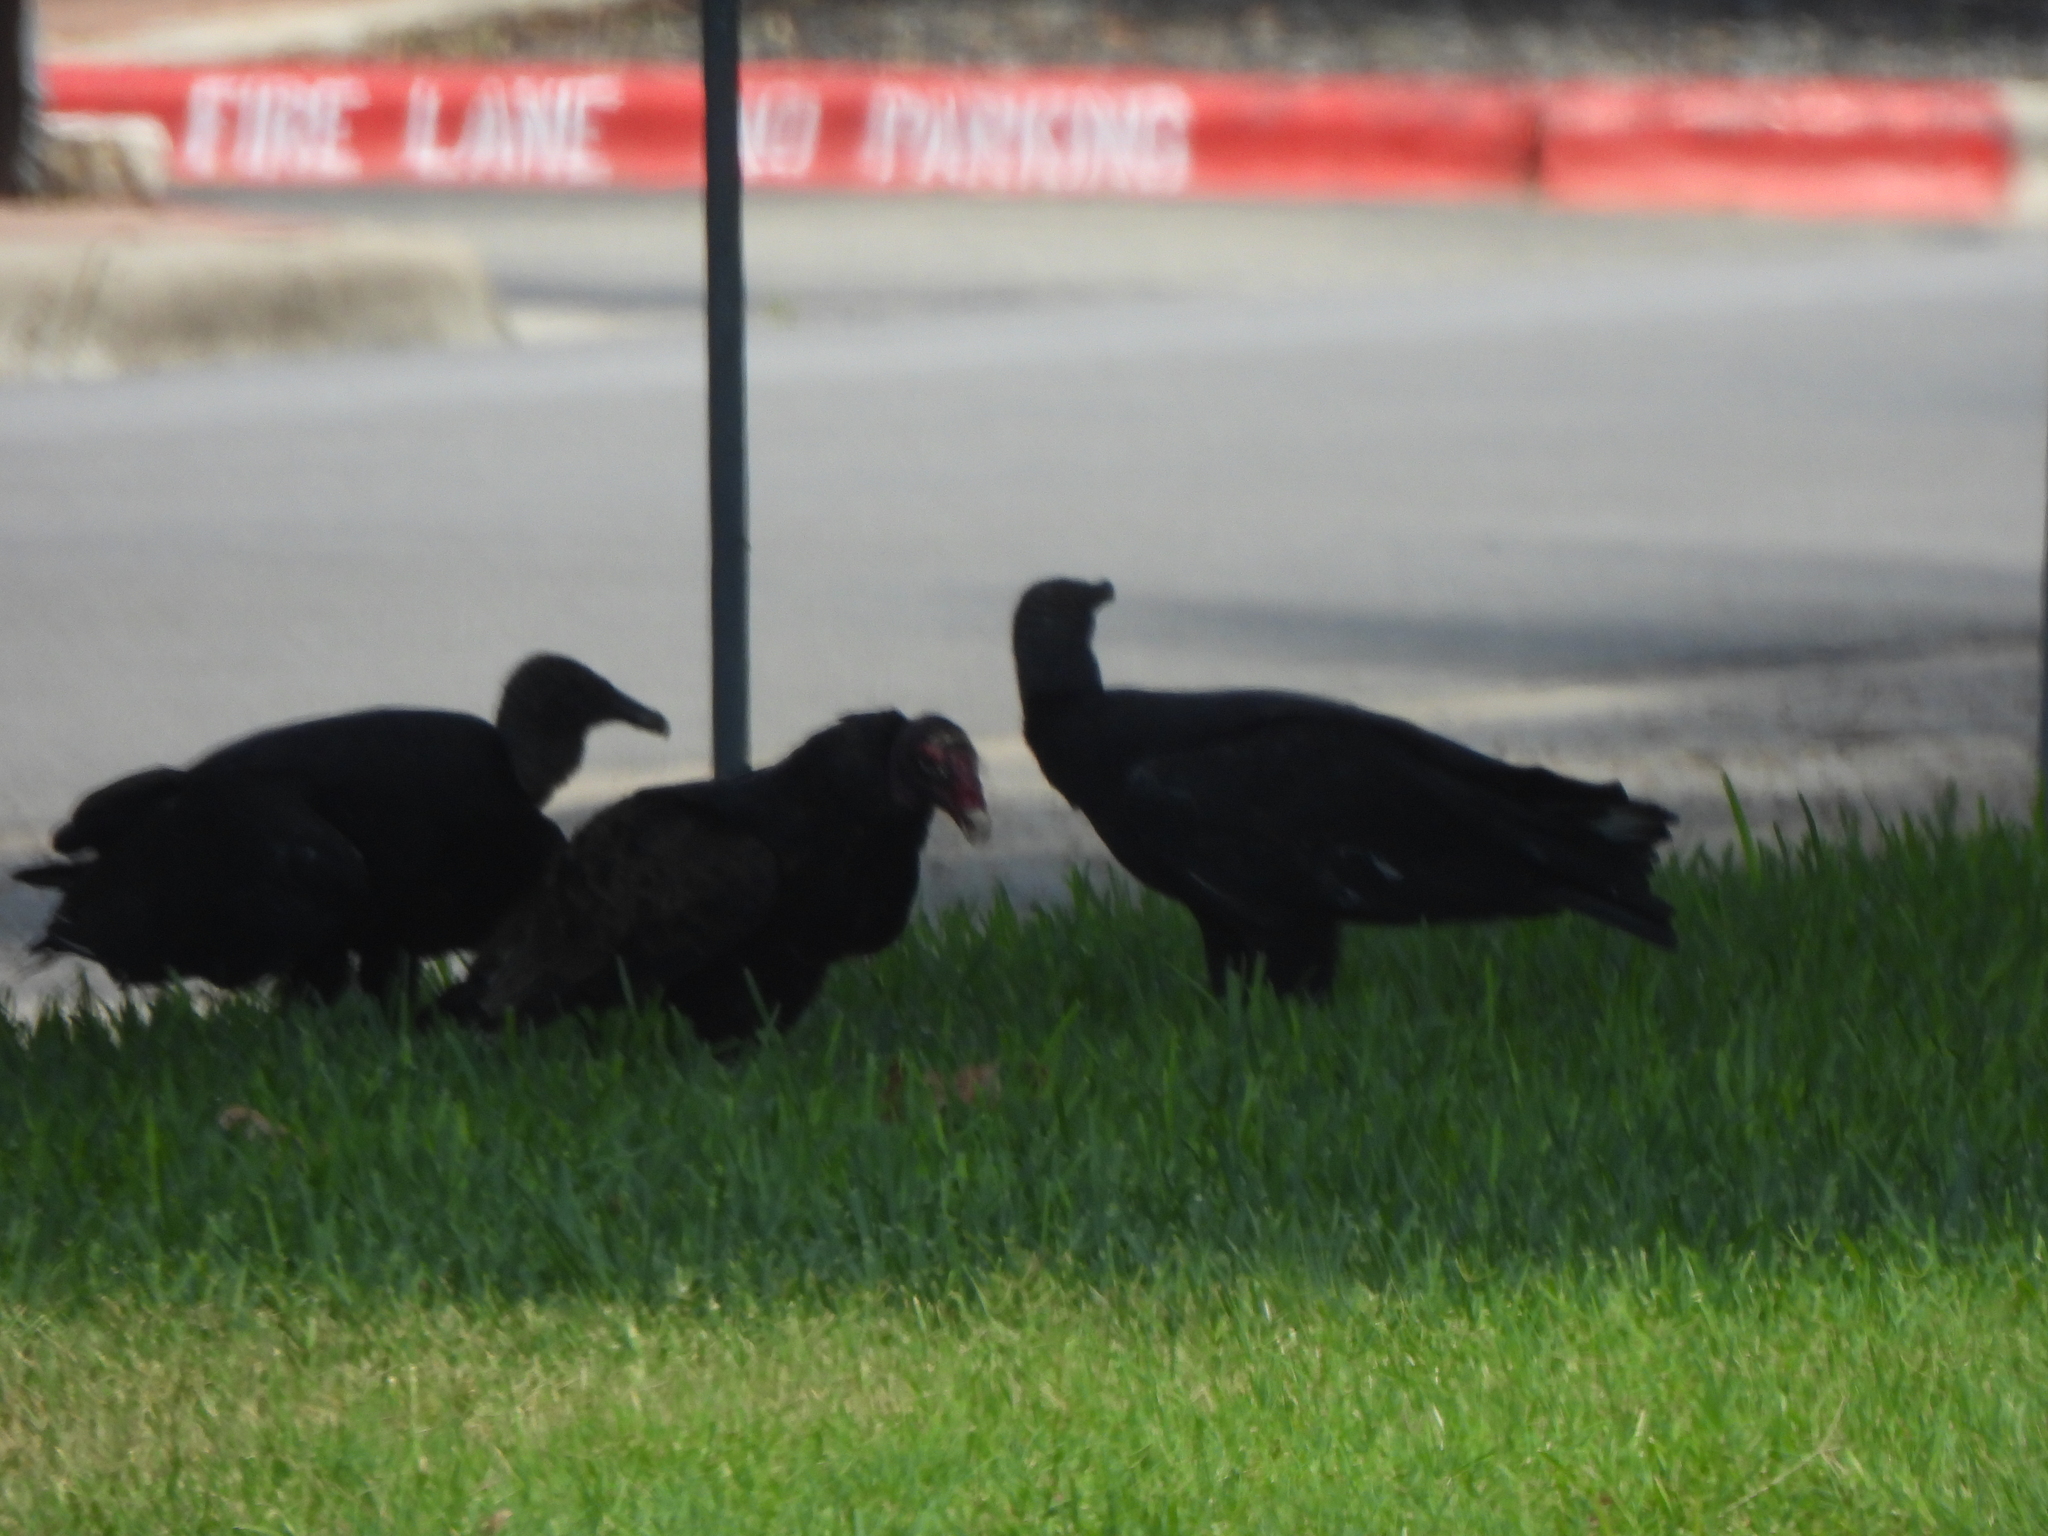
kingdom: Animalia
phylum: Chordata
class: Aves
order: Accipitriformes
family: Cathartidae
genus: Cathartes
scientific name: Cathartes aura
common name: Turkey vulture
